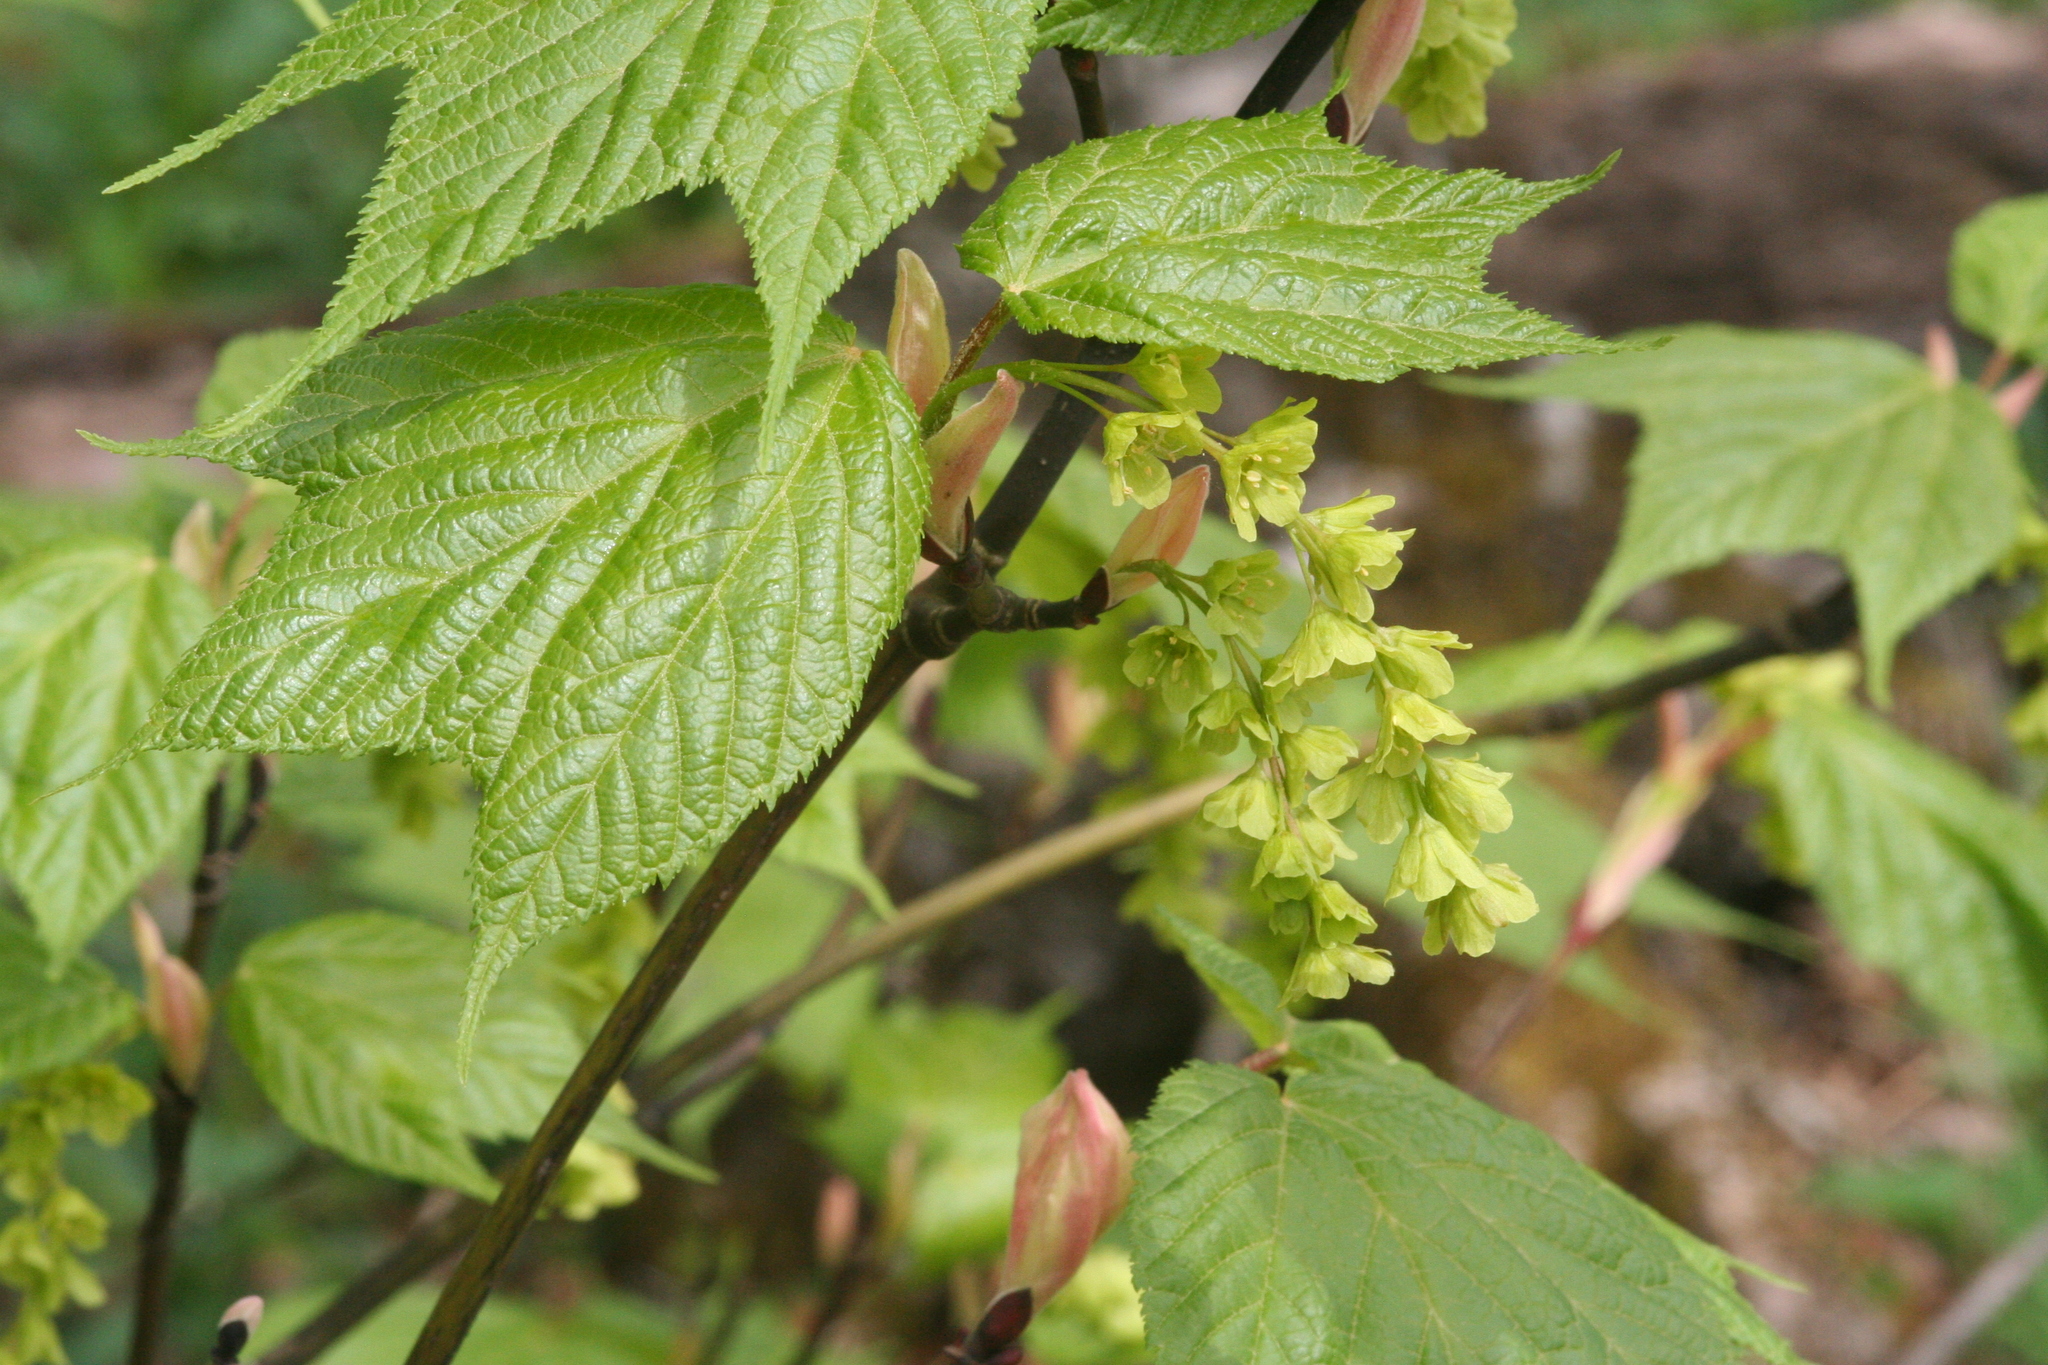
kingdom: Plantae
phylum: Tracheophyta
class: Magnoliopsida
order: Sapindales
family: Sapindaceae
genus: Acer
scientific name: Acer pensylvanicum
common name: Moosewood
